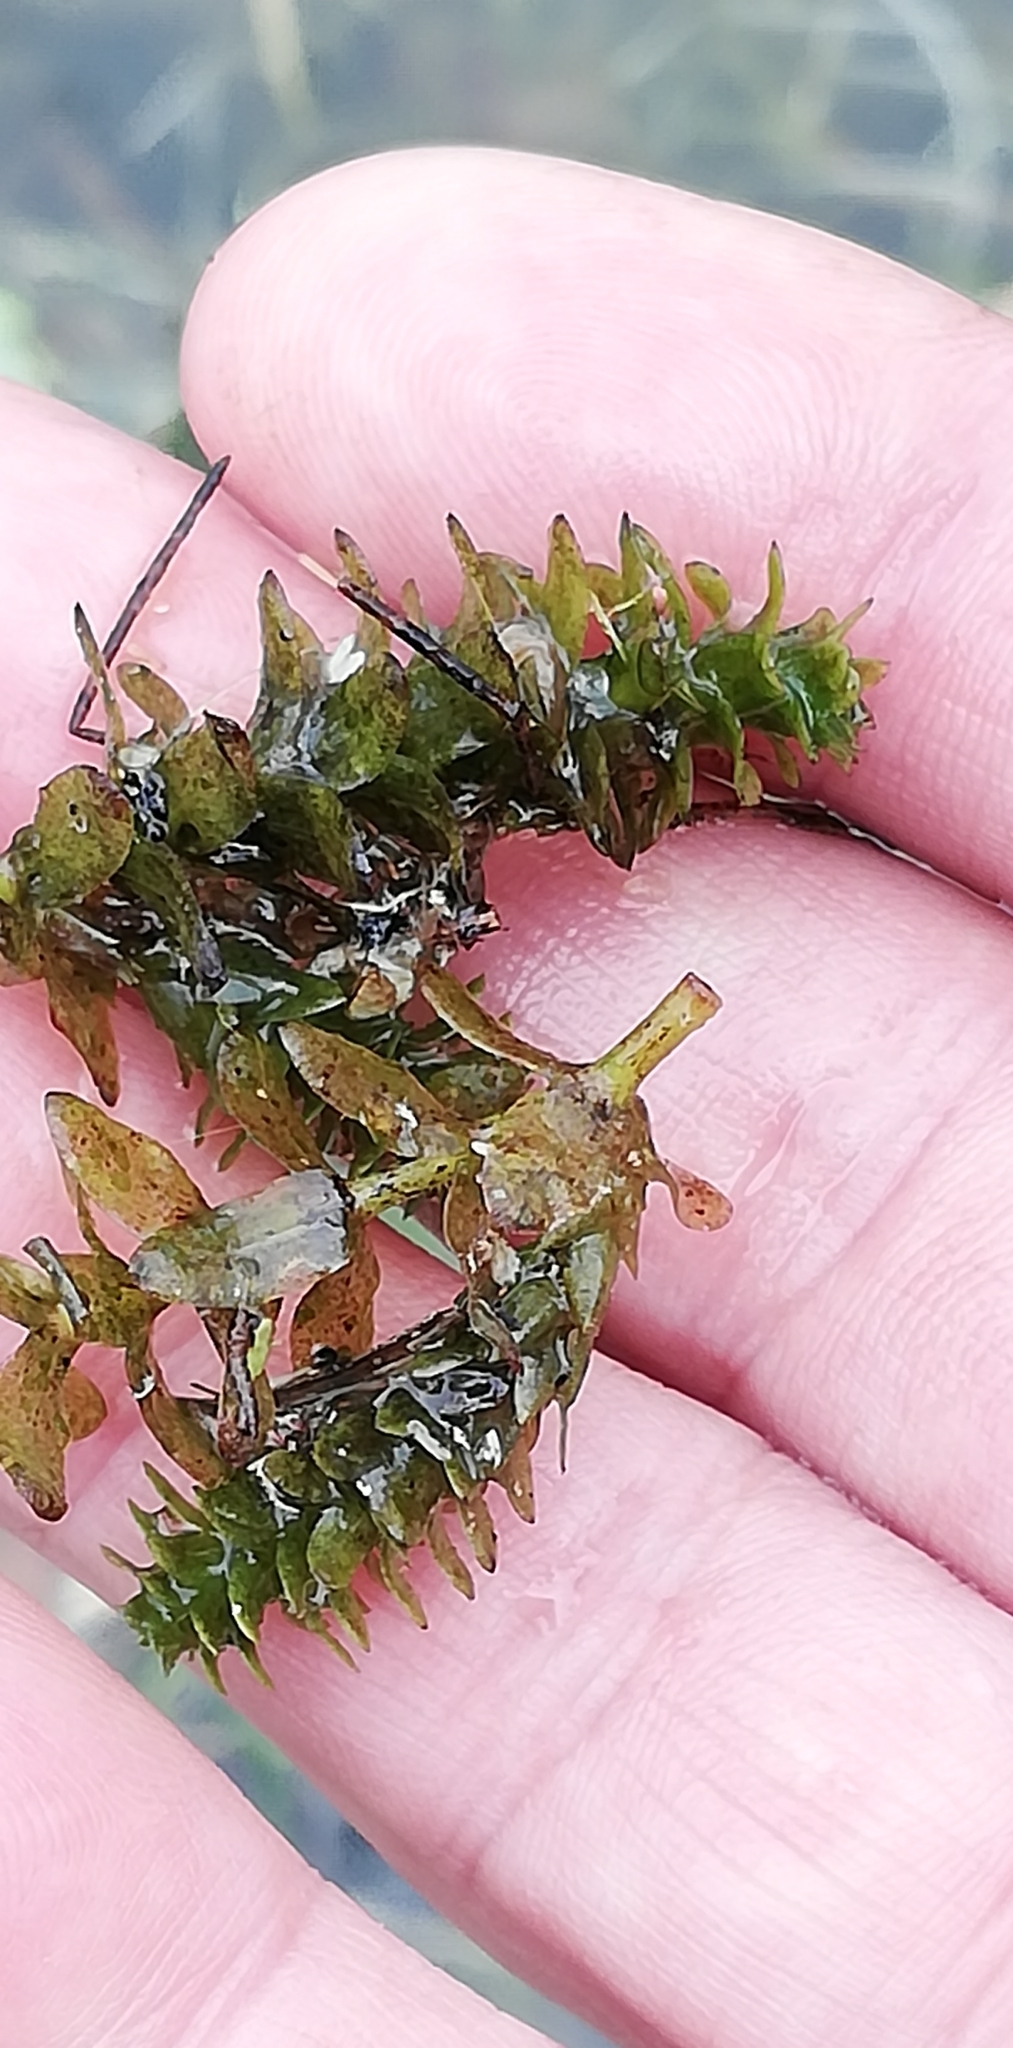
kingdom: Plantae
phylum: Tracheophyta
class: Liliopsida
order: Alismatales
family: Hydrocharitaceae
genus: Elodea
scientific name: Elodea canadensis
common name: Canadian waterweed
